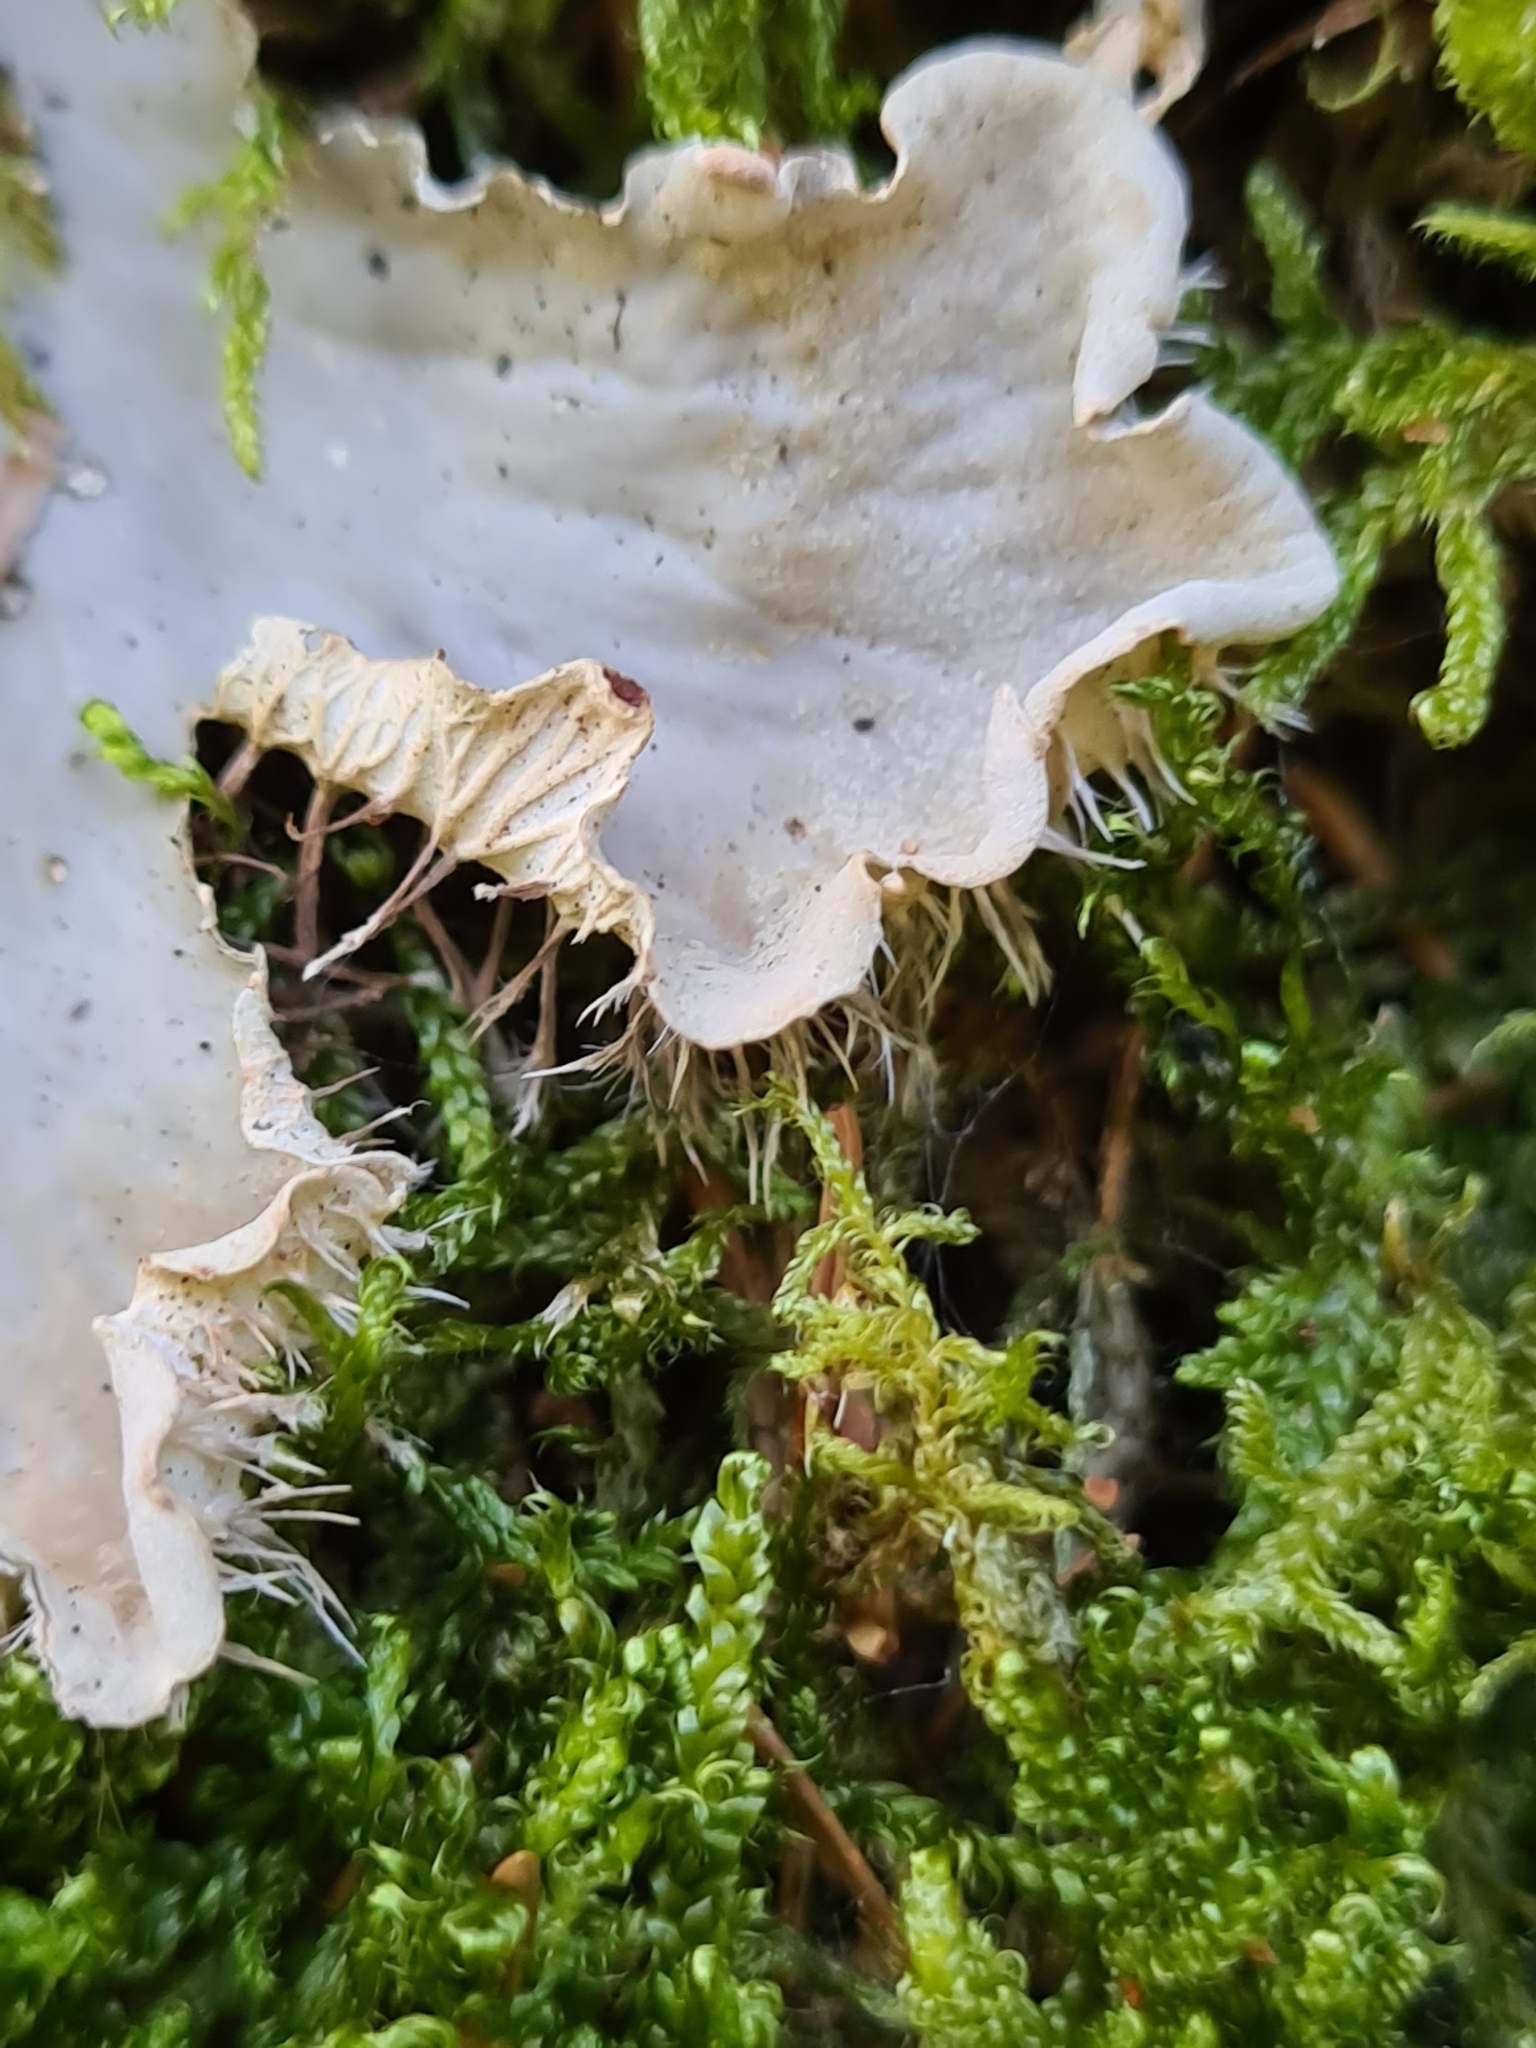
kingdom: Fungi
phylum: Ascomycota
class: Lecanoromycetes
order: Peltigerales
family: Peltigeraceae
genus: Peltigera
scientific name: Peltigera praetextata
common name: Scaly dog-lichen
